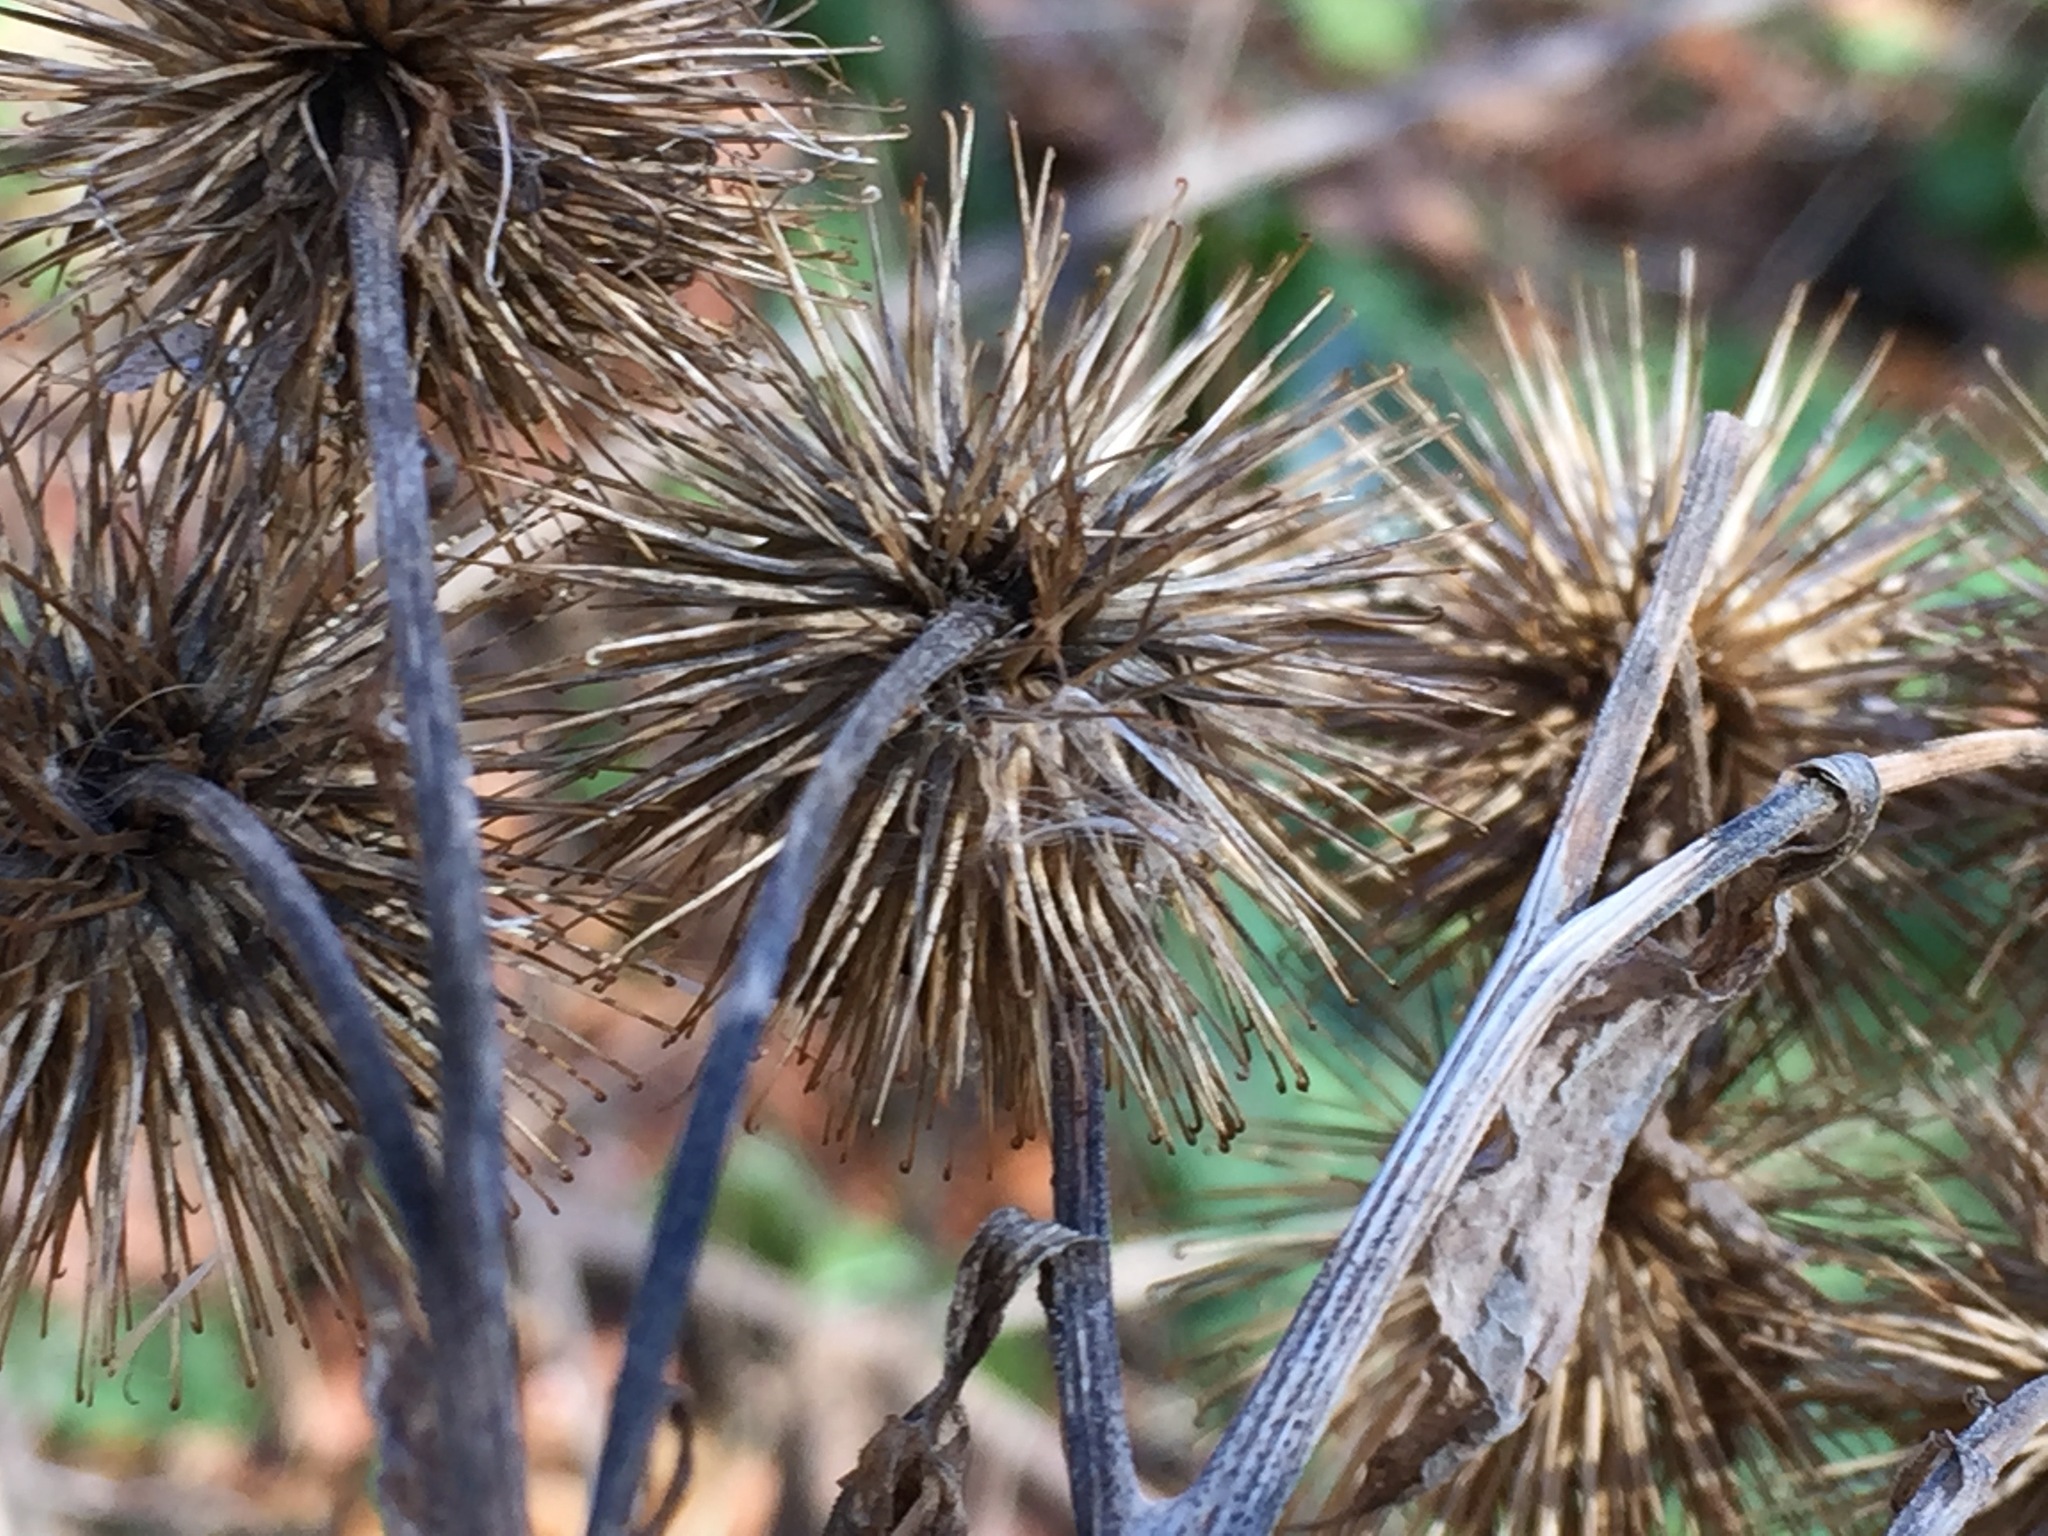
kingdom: Plantae
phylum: Tracheophyta
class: Magnoliopsida
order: Asterales
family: Asteraceae
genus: Arctium
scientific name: Arctium lappa
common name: Greater burdock
